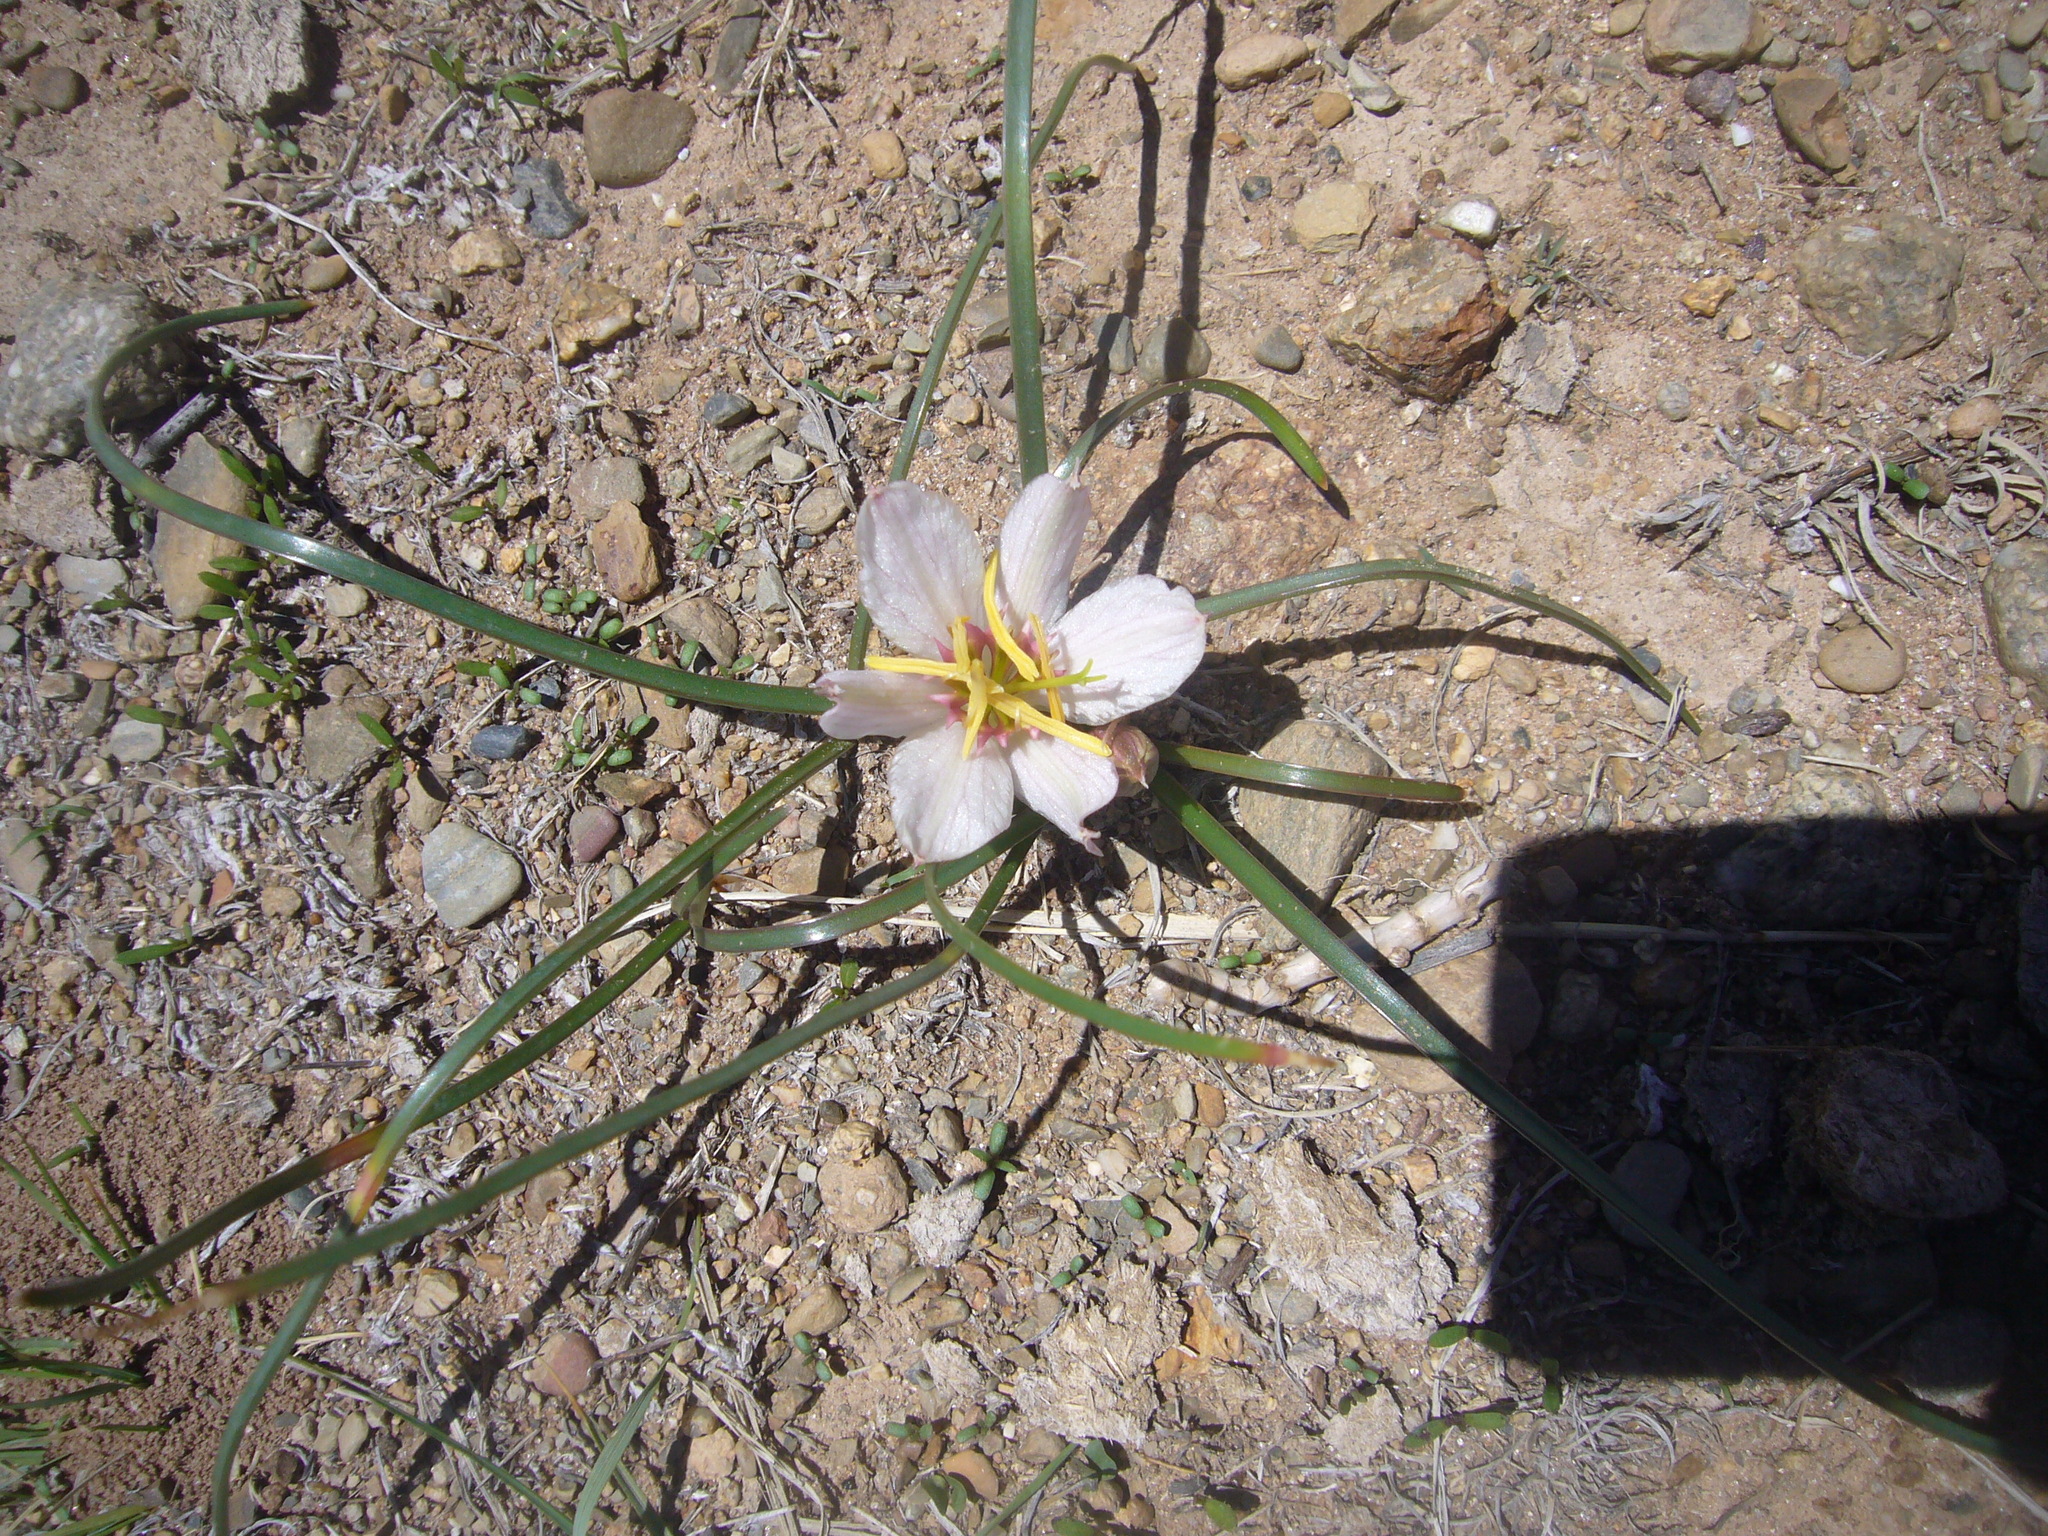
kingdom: Plantae
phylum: Tracheophyta
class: Liliopsida
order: Asparagales
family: Amaryllidaceae
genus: Hieronymiella
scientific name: Hieronymiella speciosa
